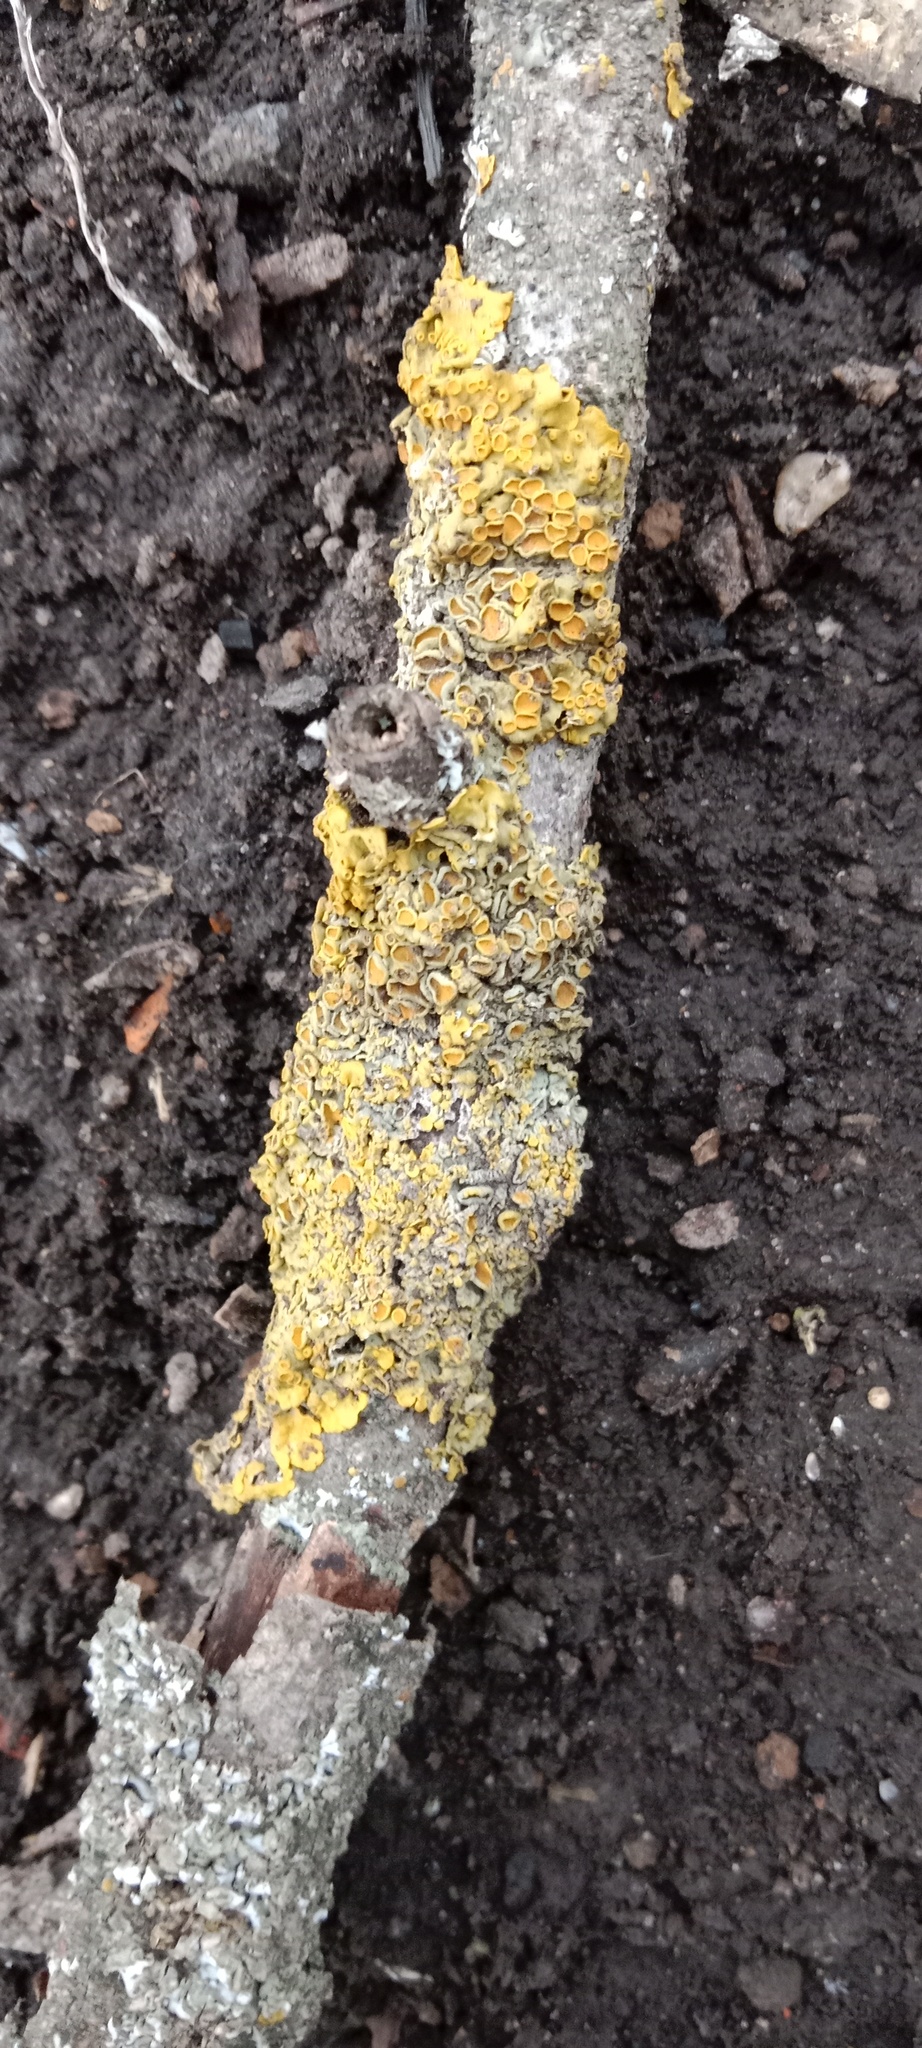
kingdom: Fungi
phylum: Ascomycota
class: Lecanoromycetes
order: Teloschistales
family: Teloschistaceae
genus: Xanthoria
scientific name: Xanthoria parietina
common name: Common orange lichen
